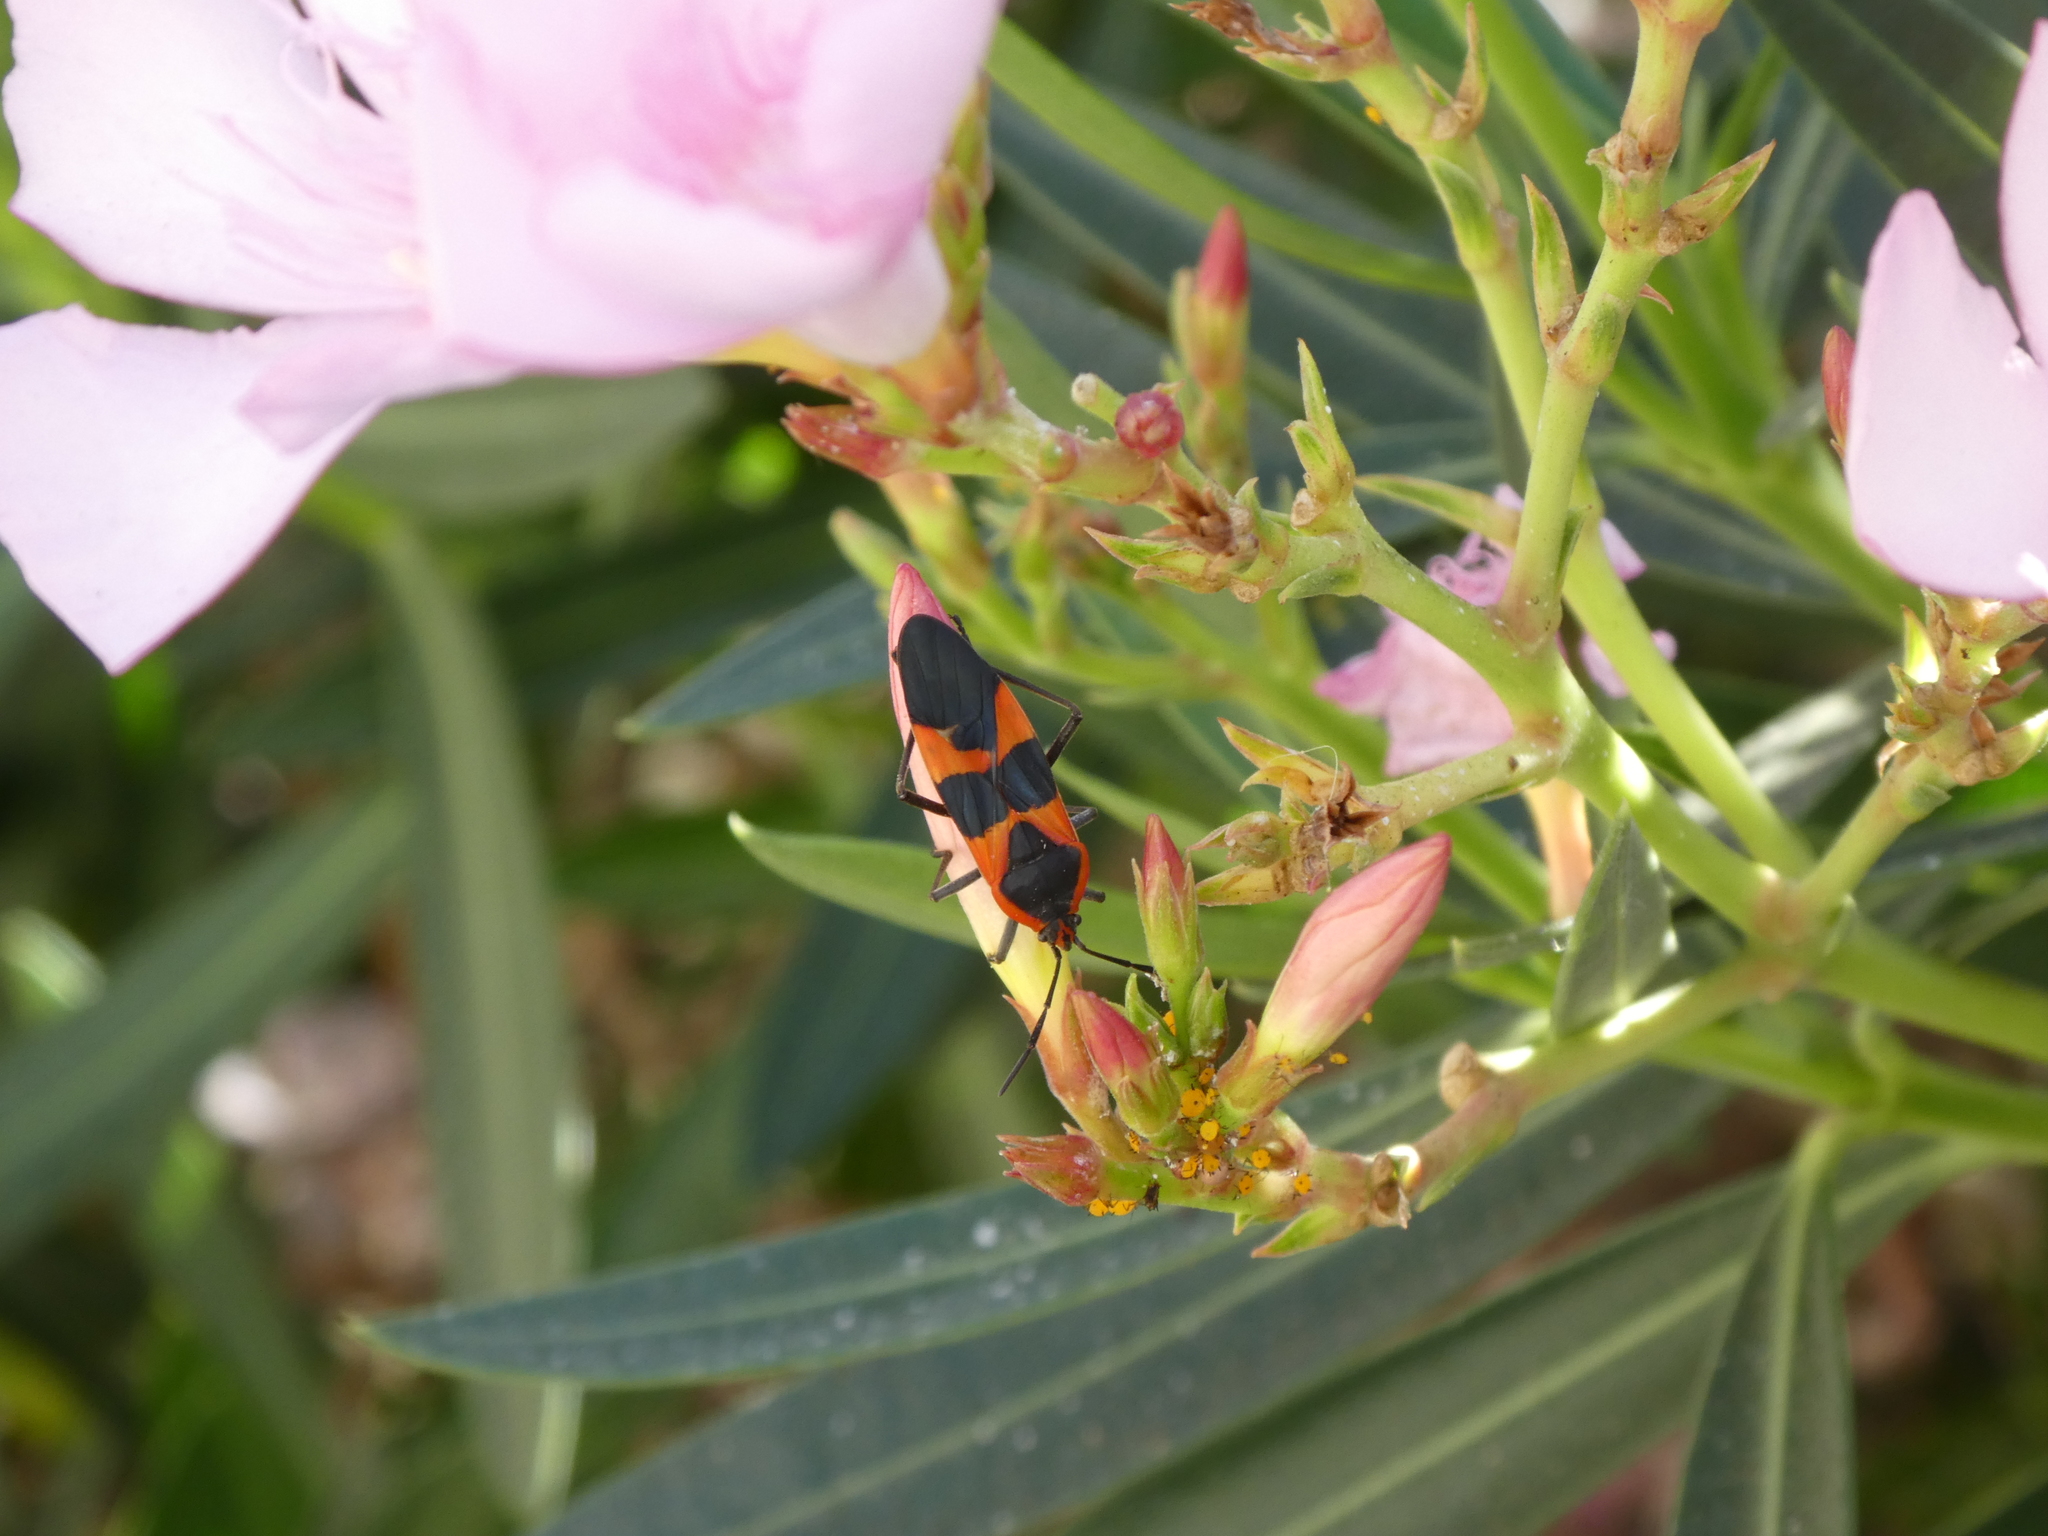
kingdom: Animalia
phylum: Arthropoda
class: Insecta
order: Hemiptera
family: Lygaeidae
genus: Oncopeltus
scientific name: Oncopeltus fasciatus
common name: Large milkweed bug
